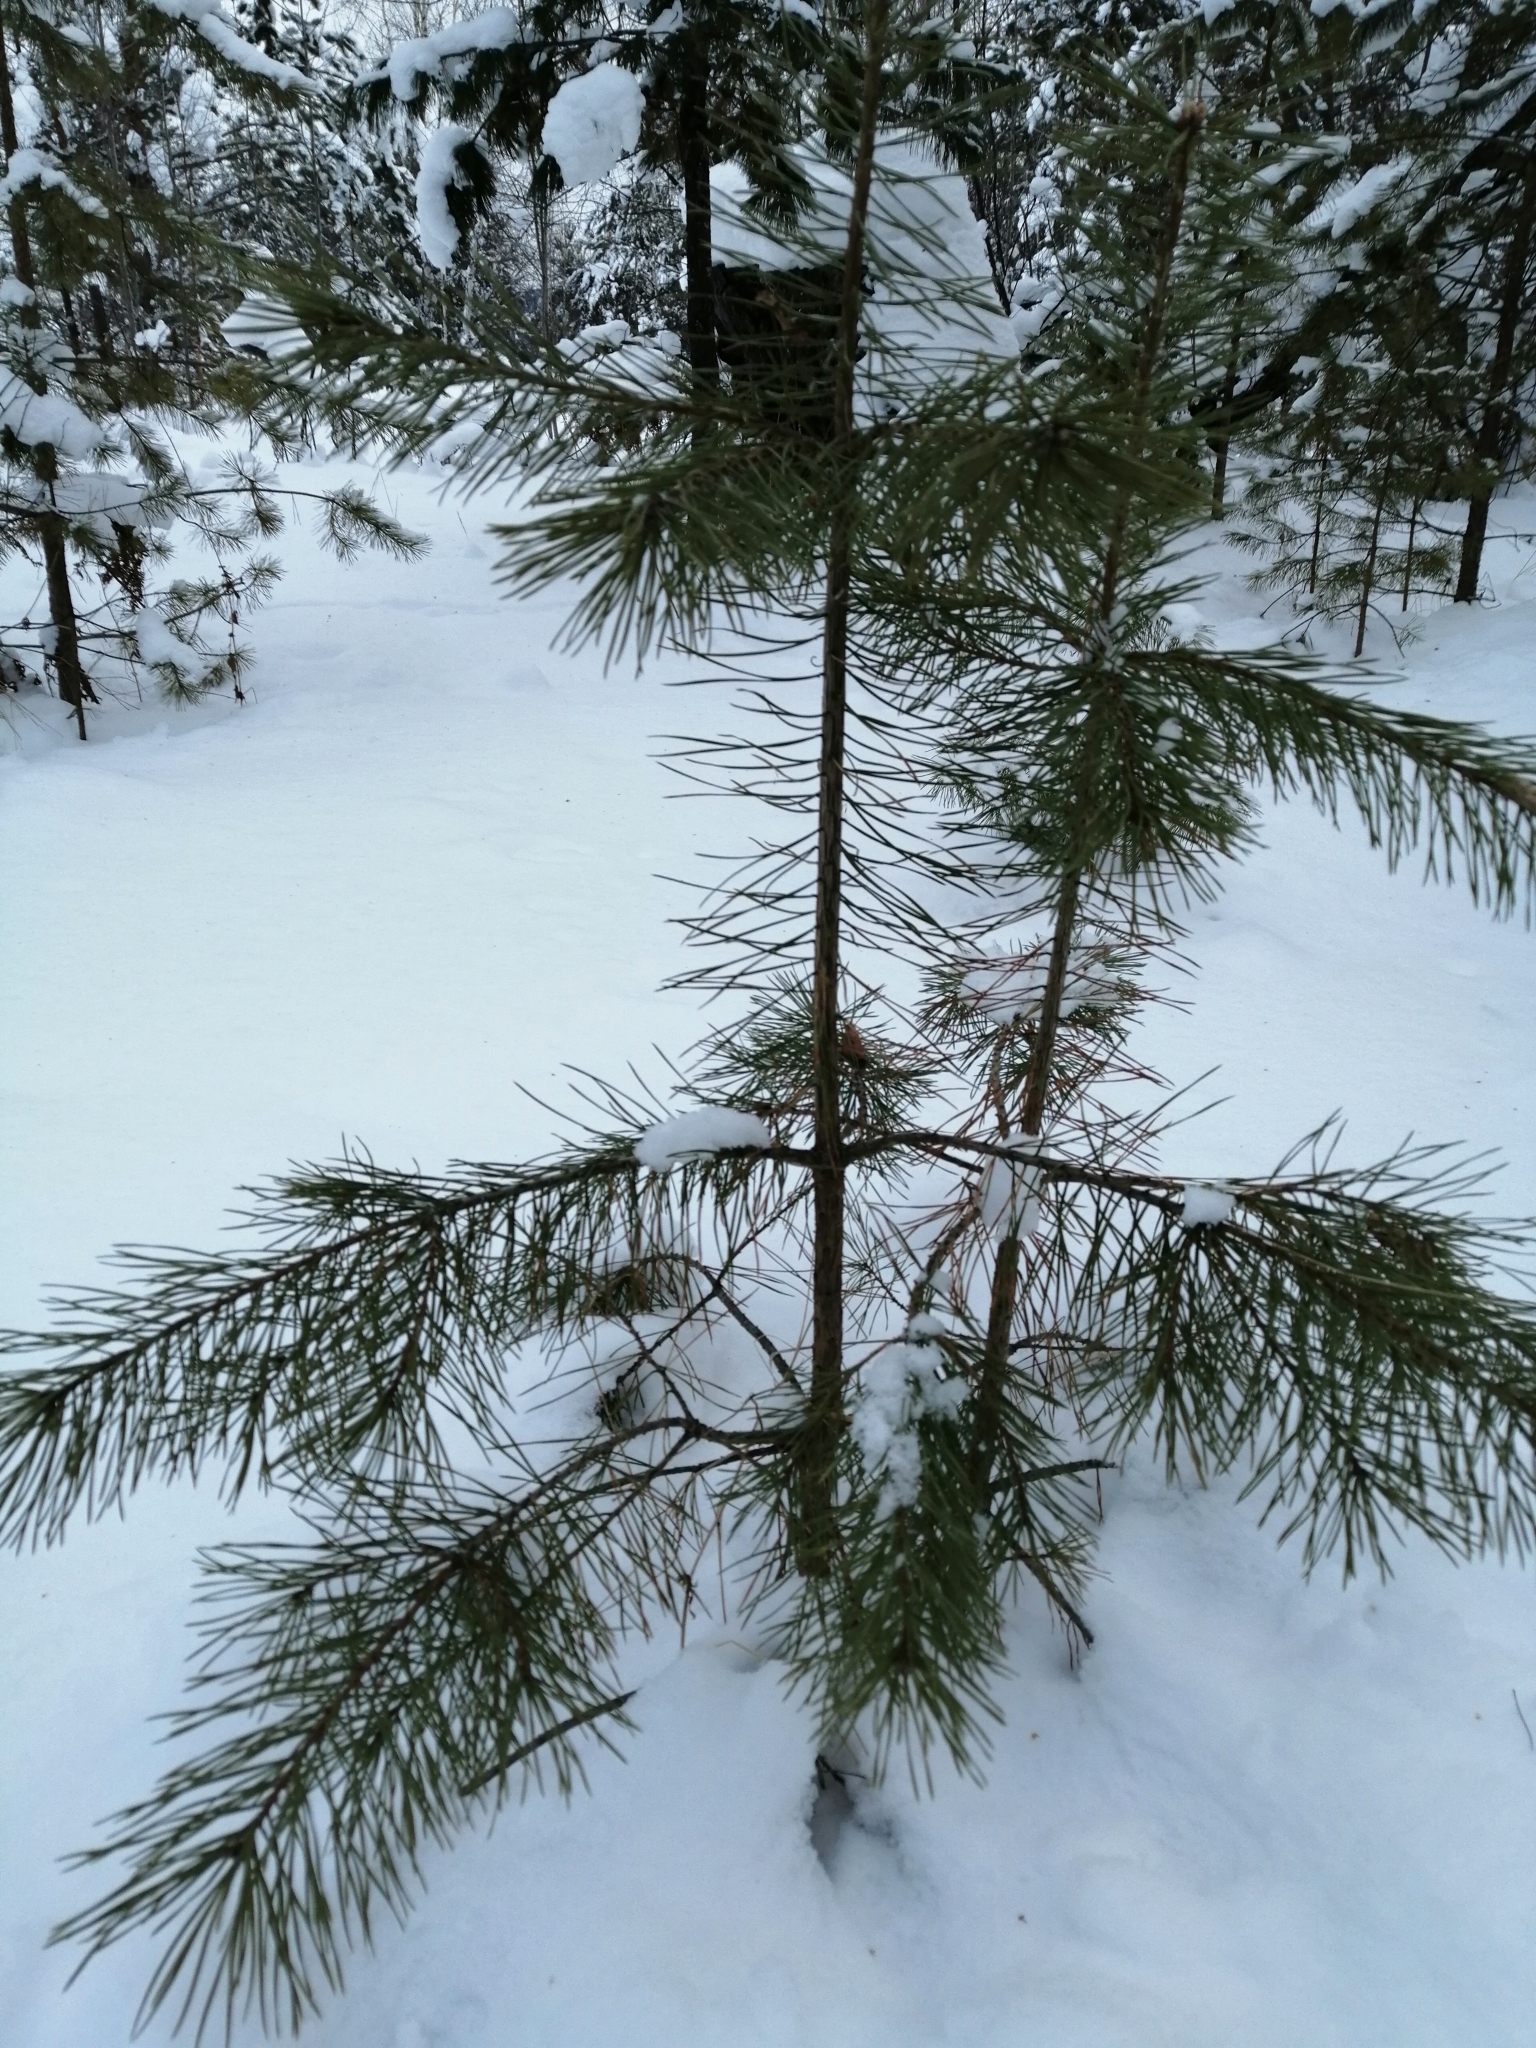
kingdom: Plantae
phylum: Tracheophyta
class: Pinopsida
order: Pinales
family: Pinaceae
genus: Pinus
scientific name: Pinus sylvestris
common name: Scots pine
